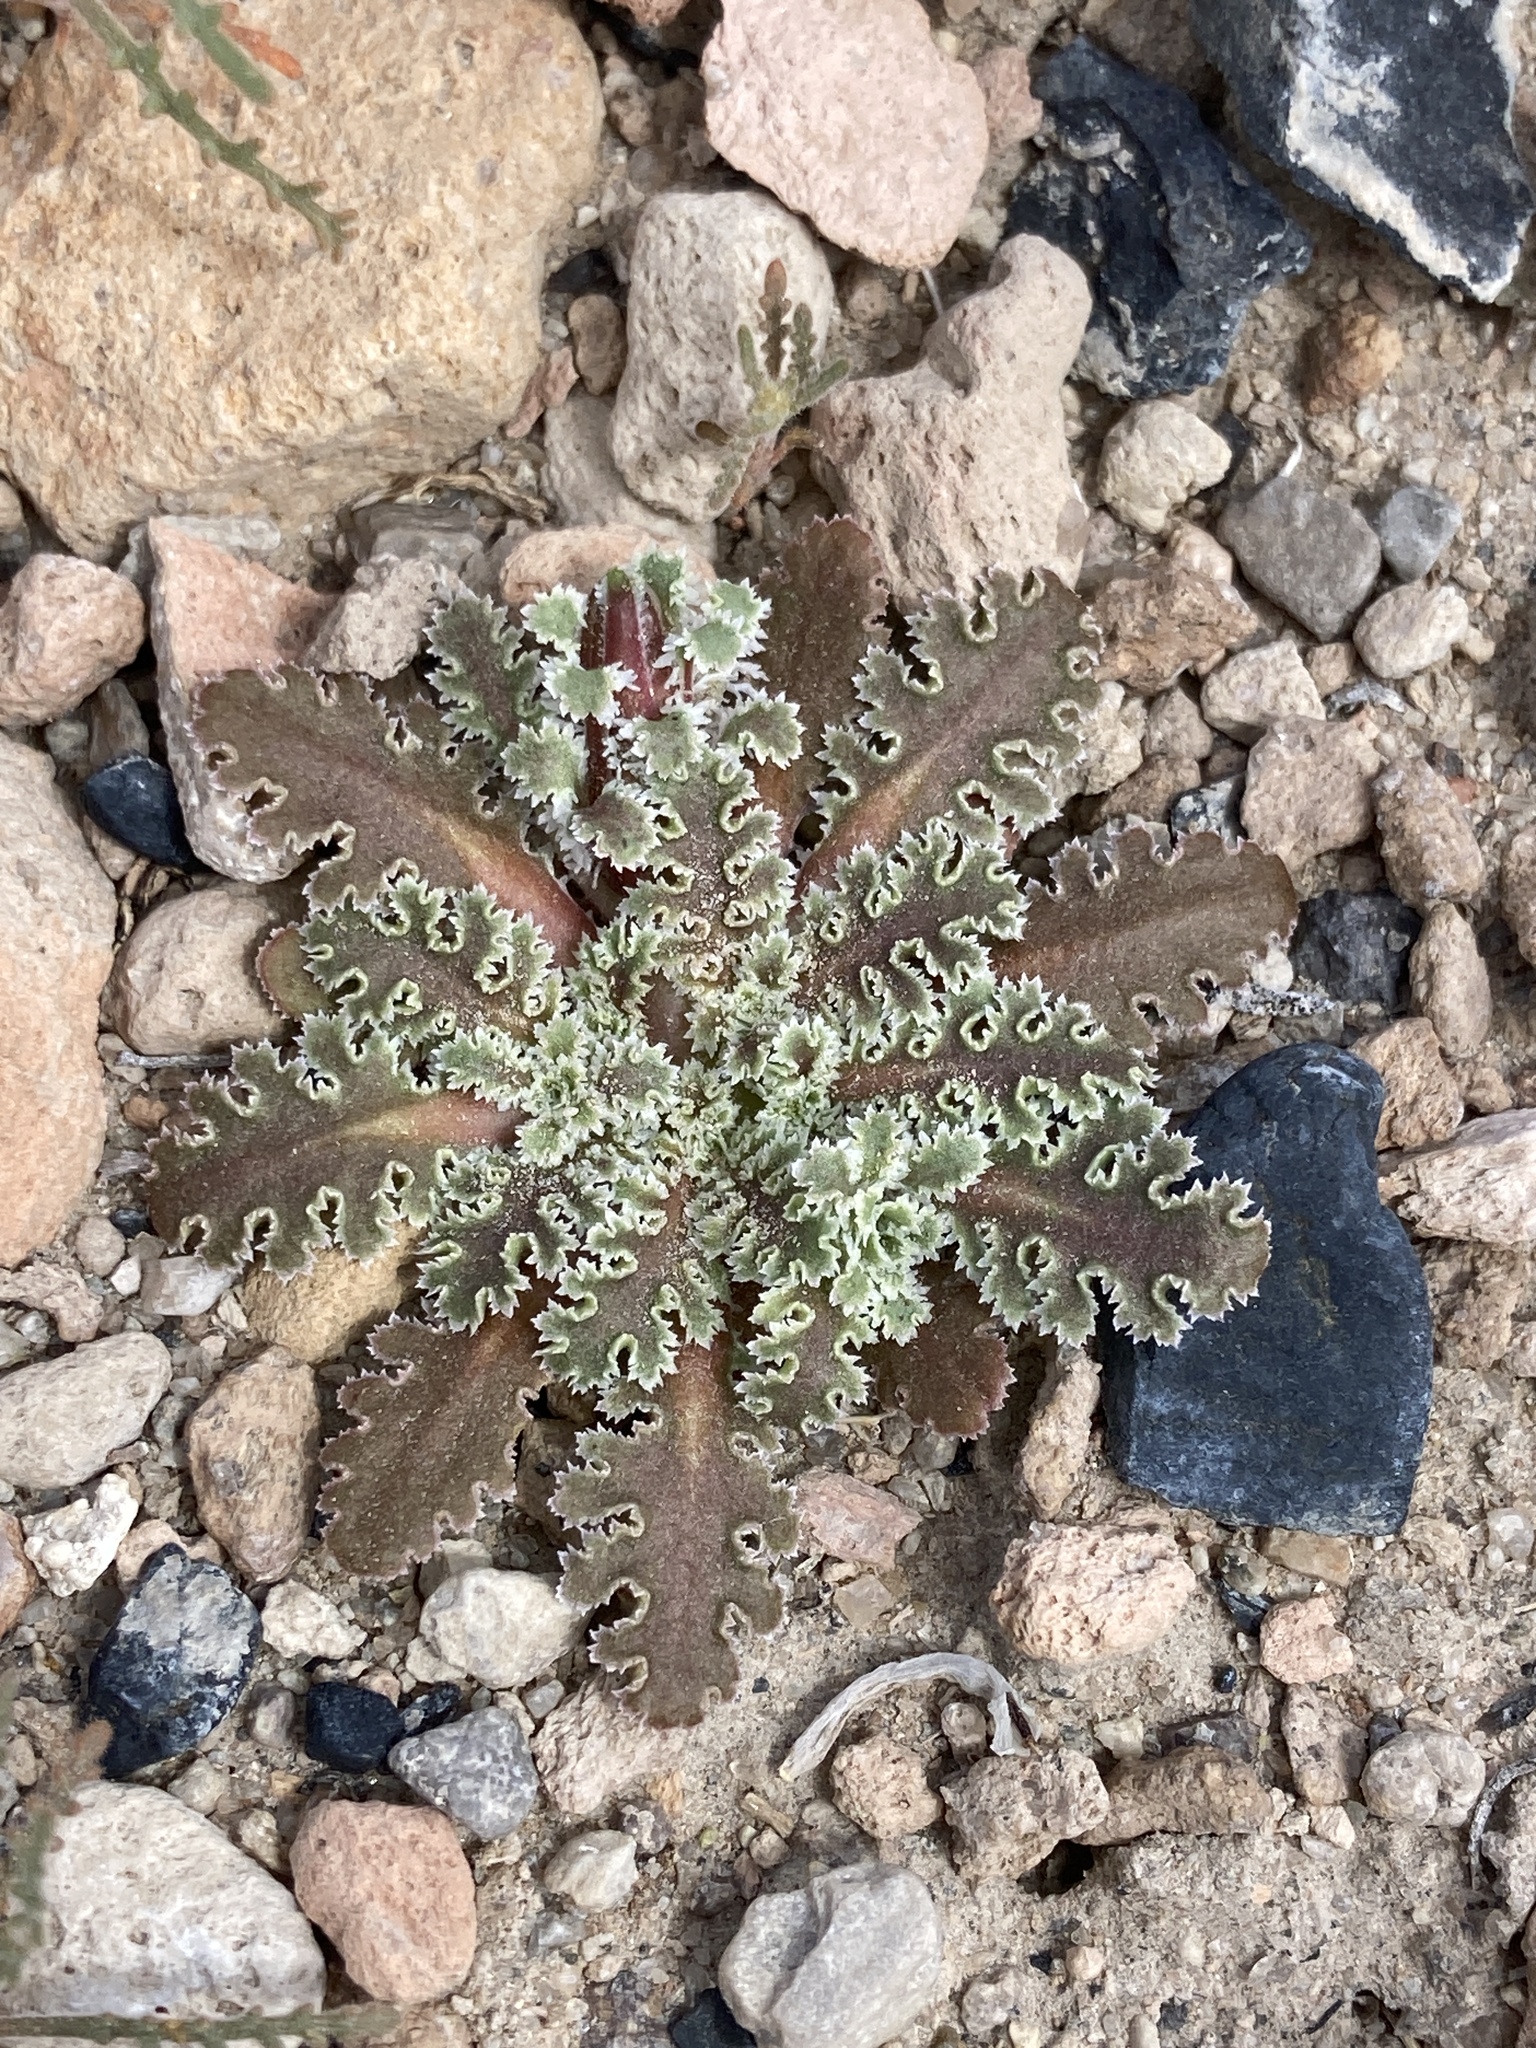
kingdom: Plantae
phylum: Tracheophyta
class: Magnoliopsida
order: Asterales
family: Asteraceae
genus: Glyptopleura
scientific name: Glyptopleura marginata
